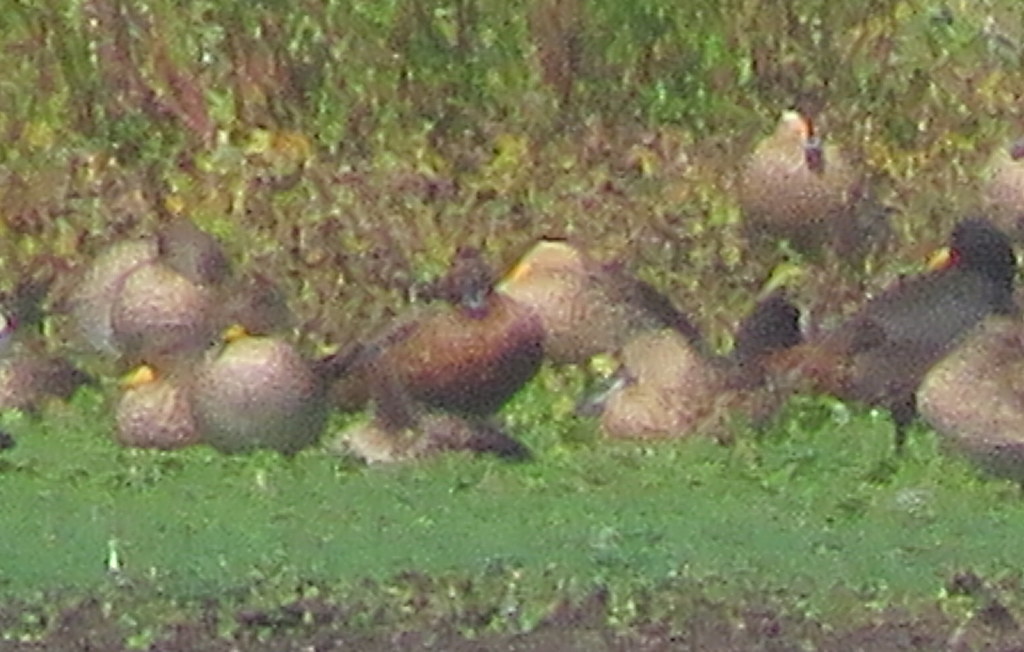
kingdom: Animalia
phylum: Chordata
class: Aves
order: Anseriformes
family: Anatidae
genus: Spatula
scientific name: Spatula cyanoptera
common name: Cinnamon teal
